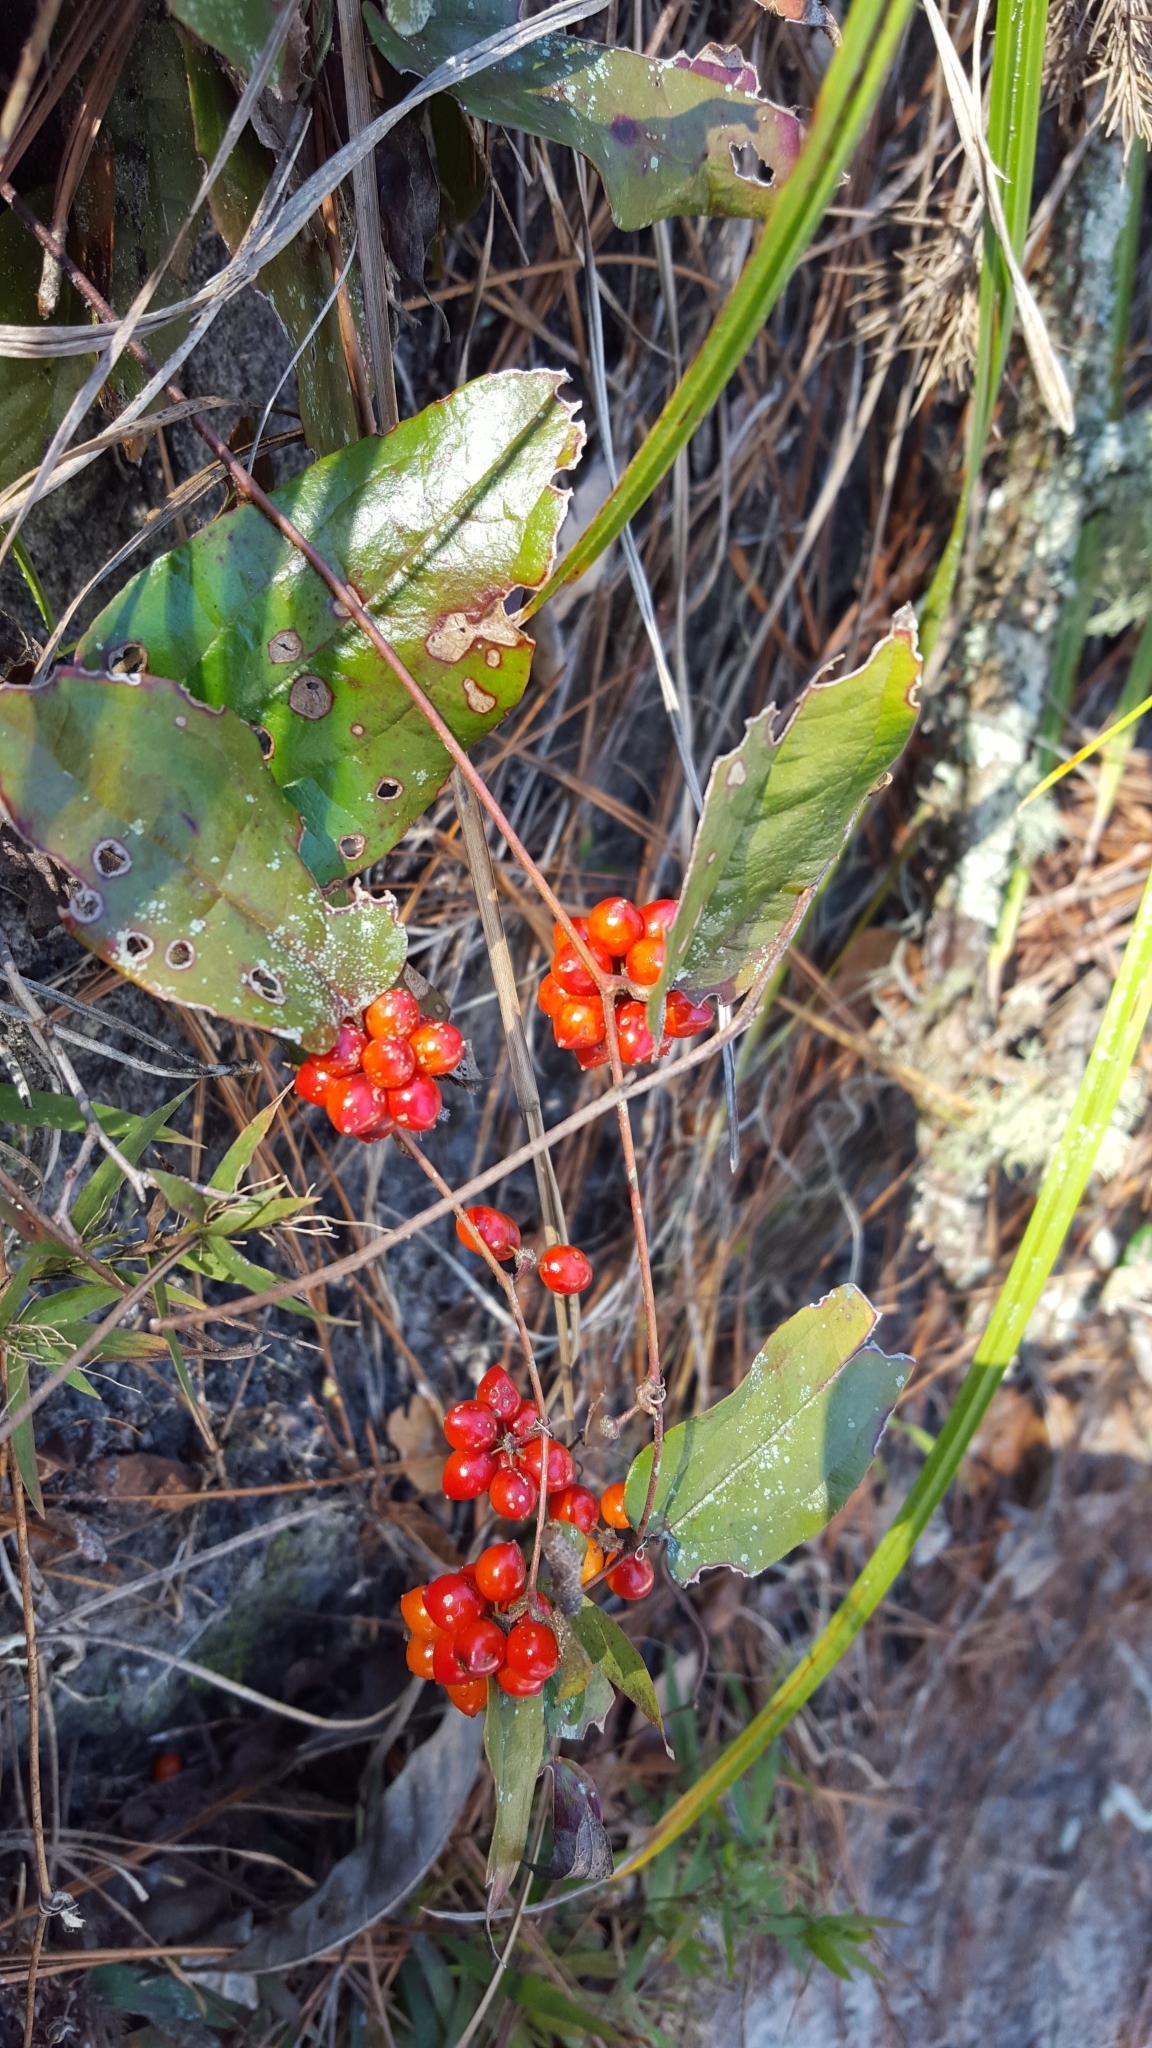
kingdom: Plantae
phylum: Tracheophyta
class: Liliopsida
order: Liliales
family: Smilacaceae
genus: Smilax
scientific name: Smilax pumila
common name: Sarsaparilla-vine
